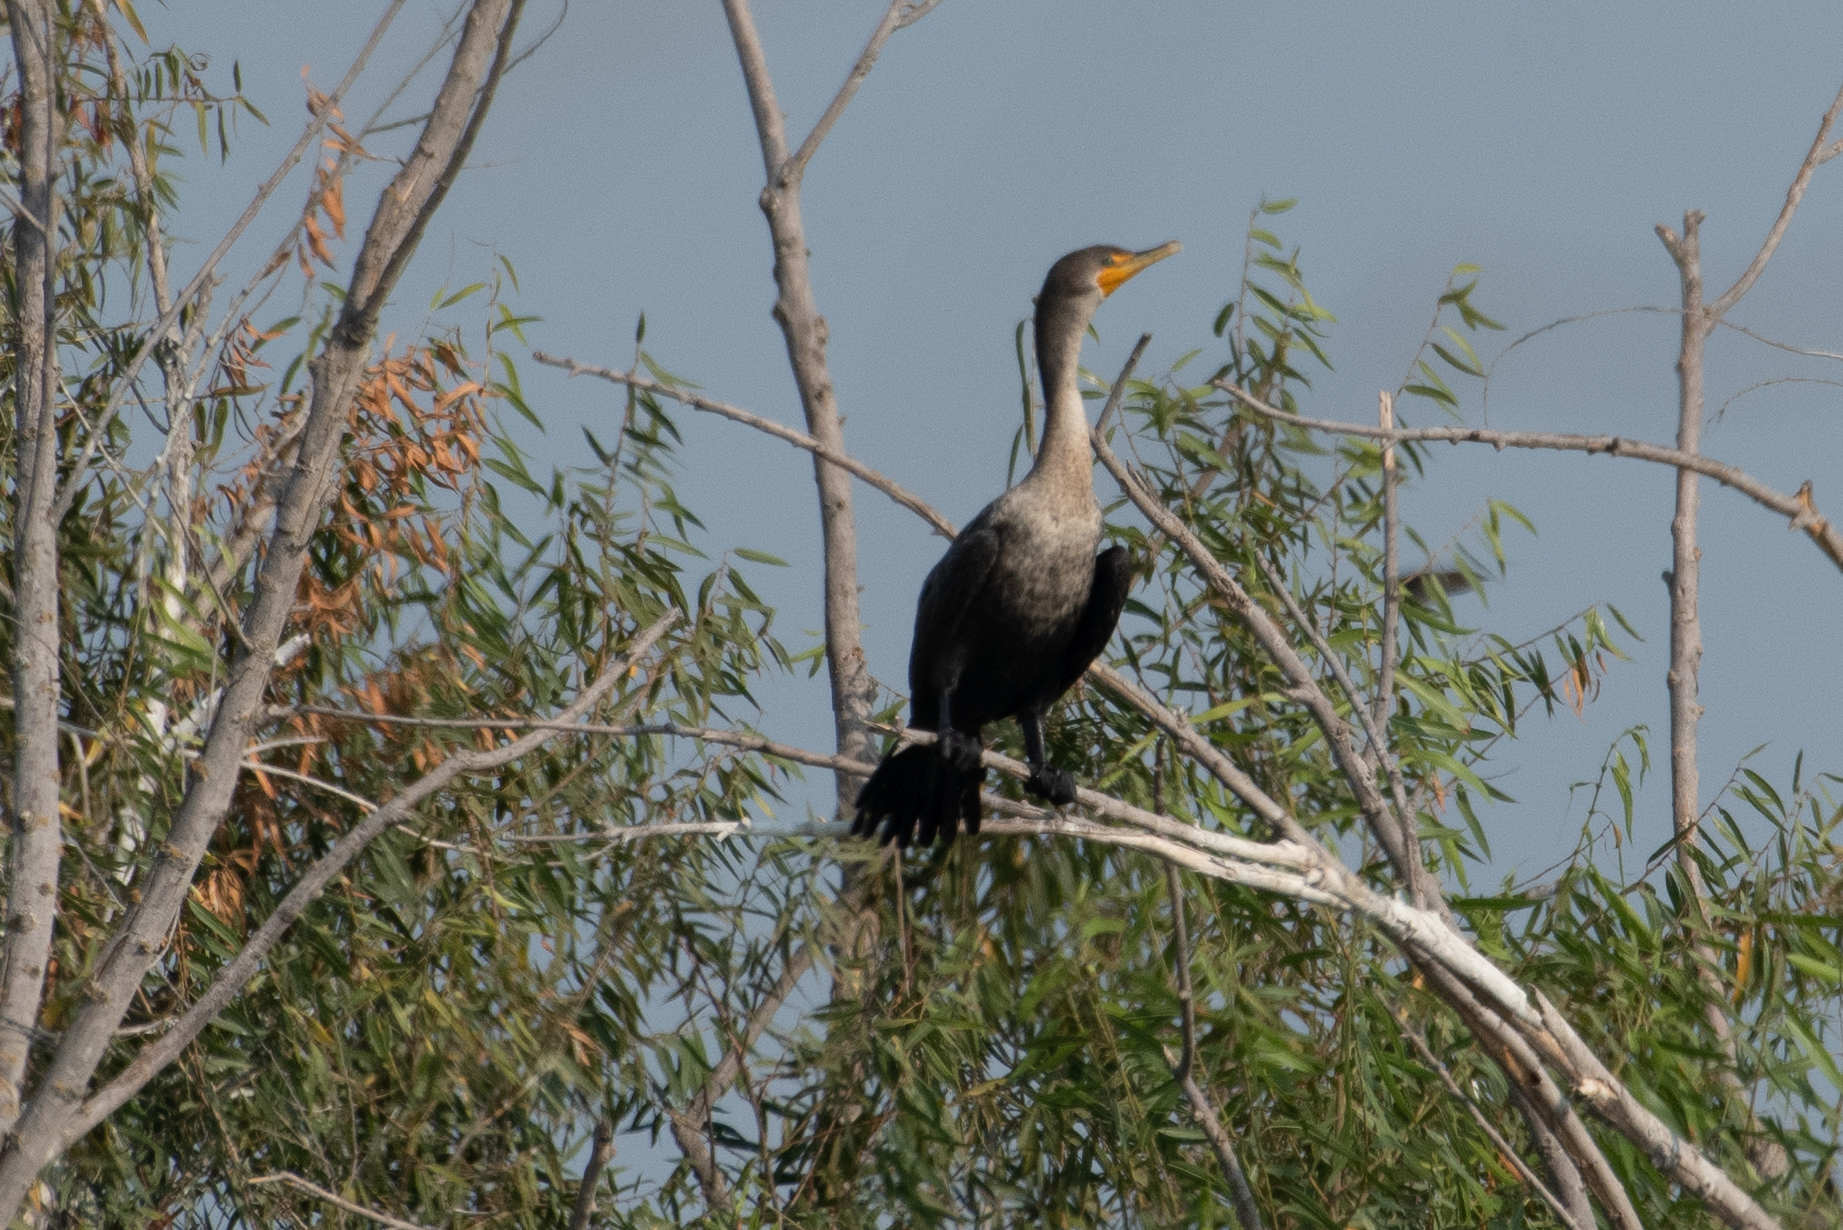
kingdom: Animalia
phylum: Chordata
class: Aves
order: Suliformes
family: Phalacrocoracidae
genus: Phalacrocorax
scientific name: Phalacrocorax auritus
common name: Double-crested cormorant
